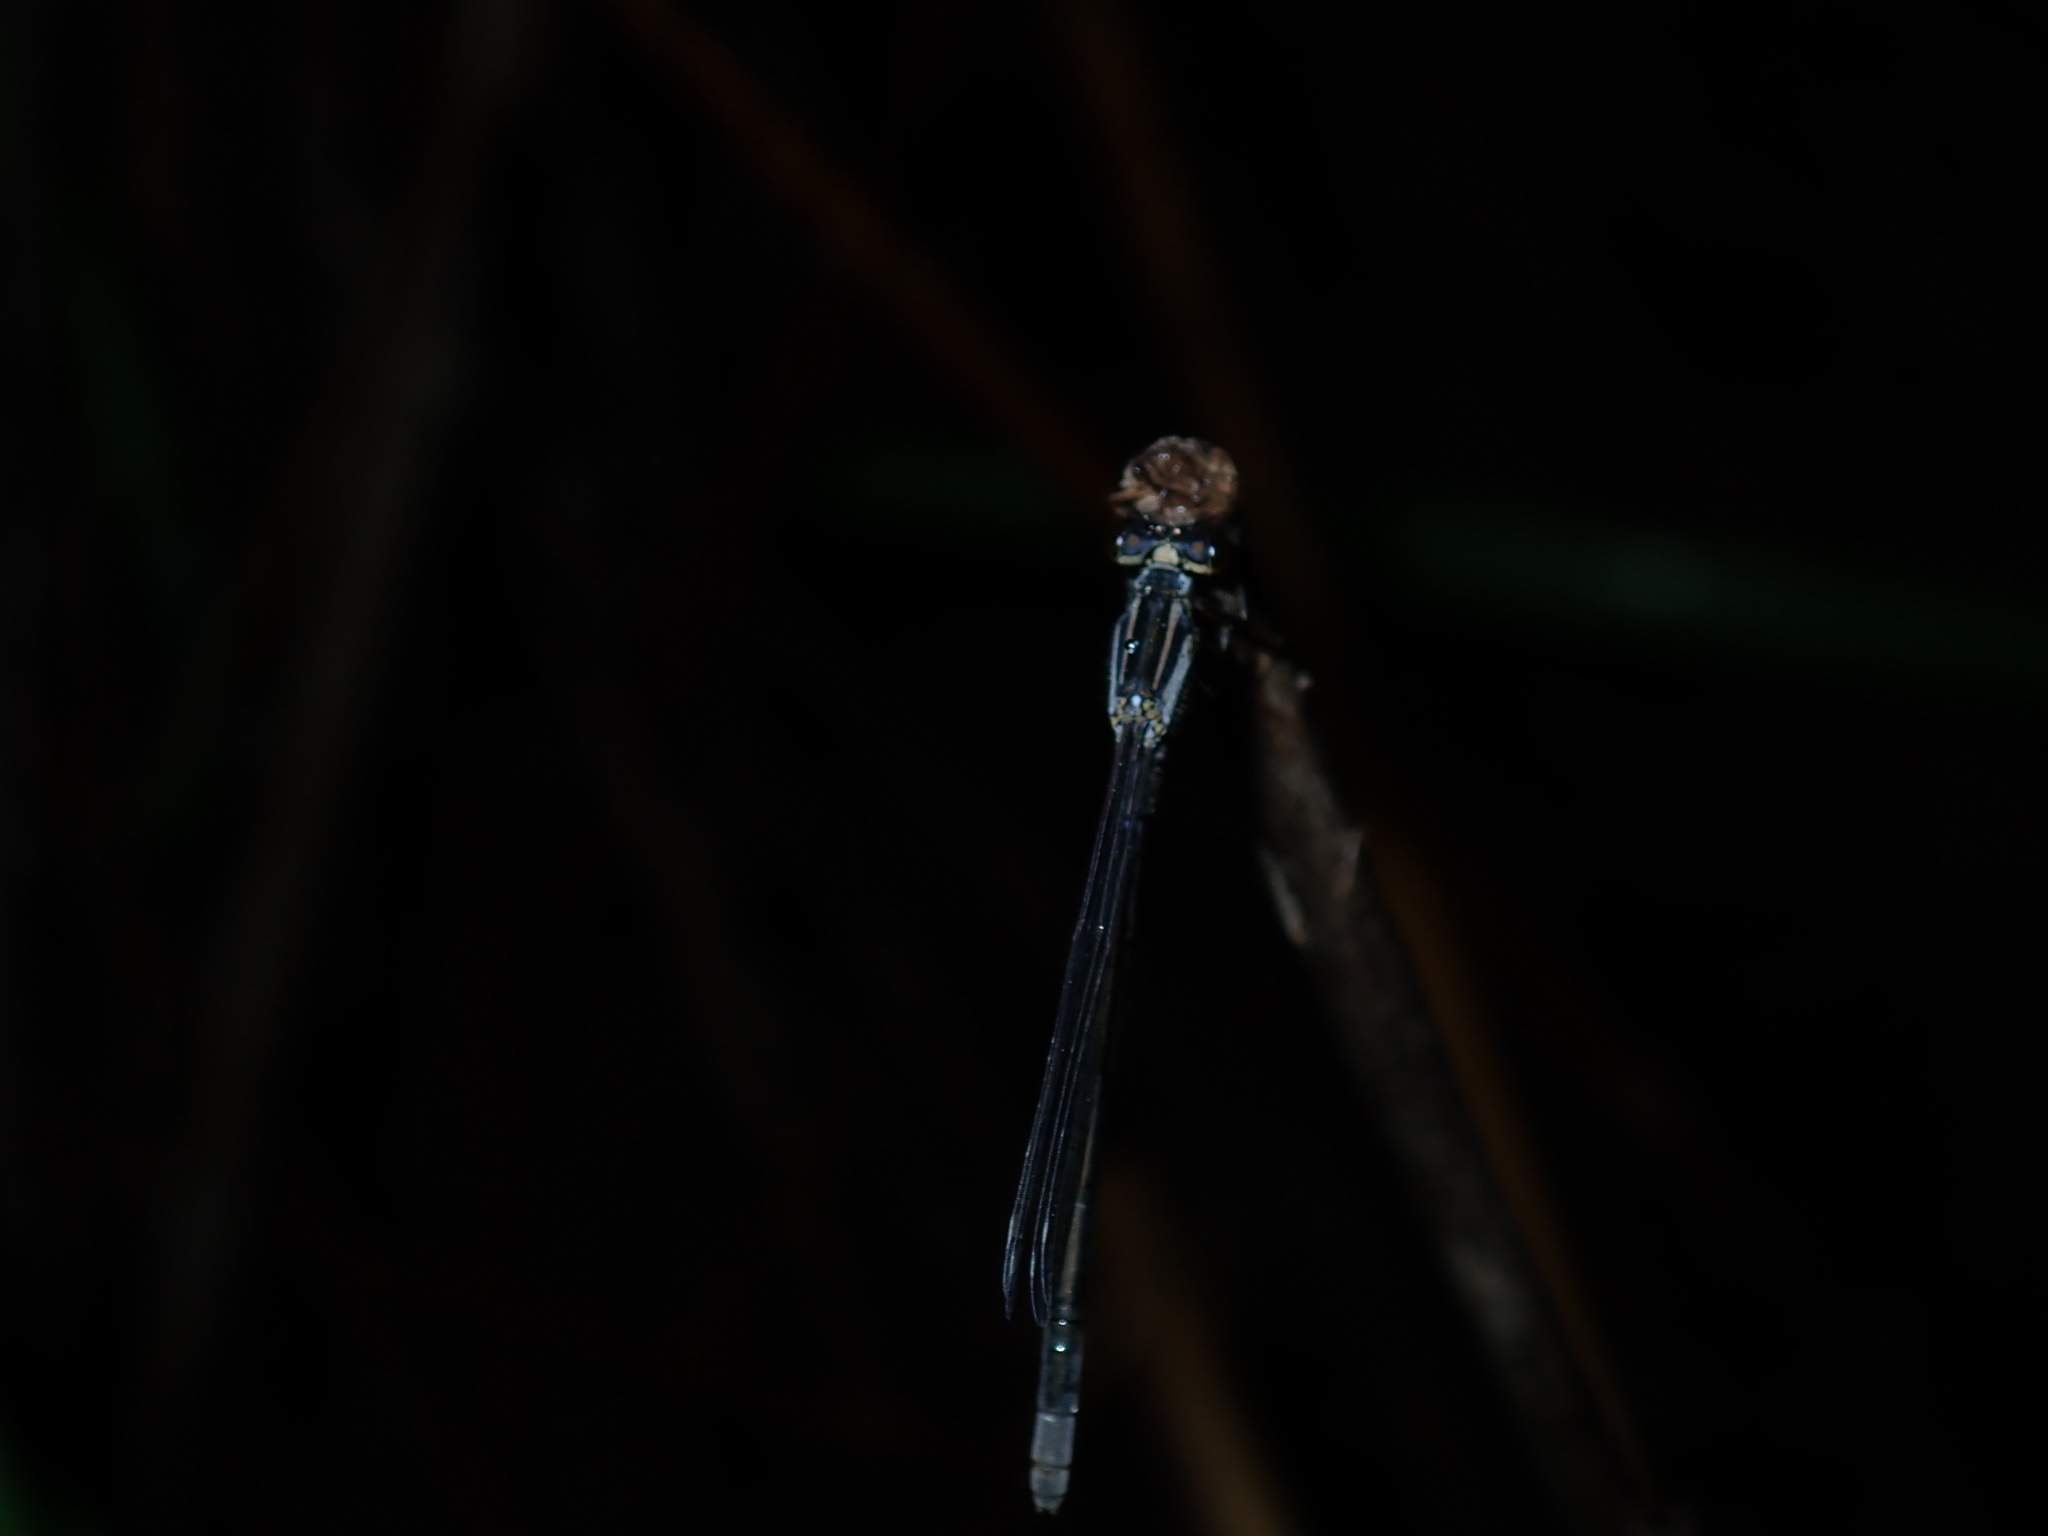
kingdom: Animalia
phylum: Arthropoda
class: Insecta
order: Odonata
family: Coenagrionidae
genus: Ischnura
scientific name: Ischnura heterosticta
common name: Common bluetail
